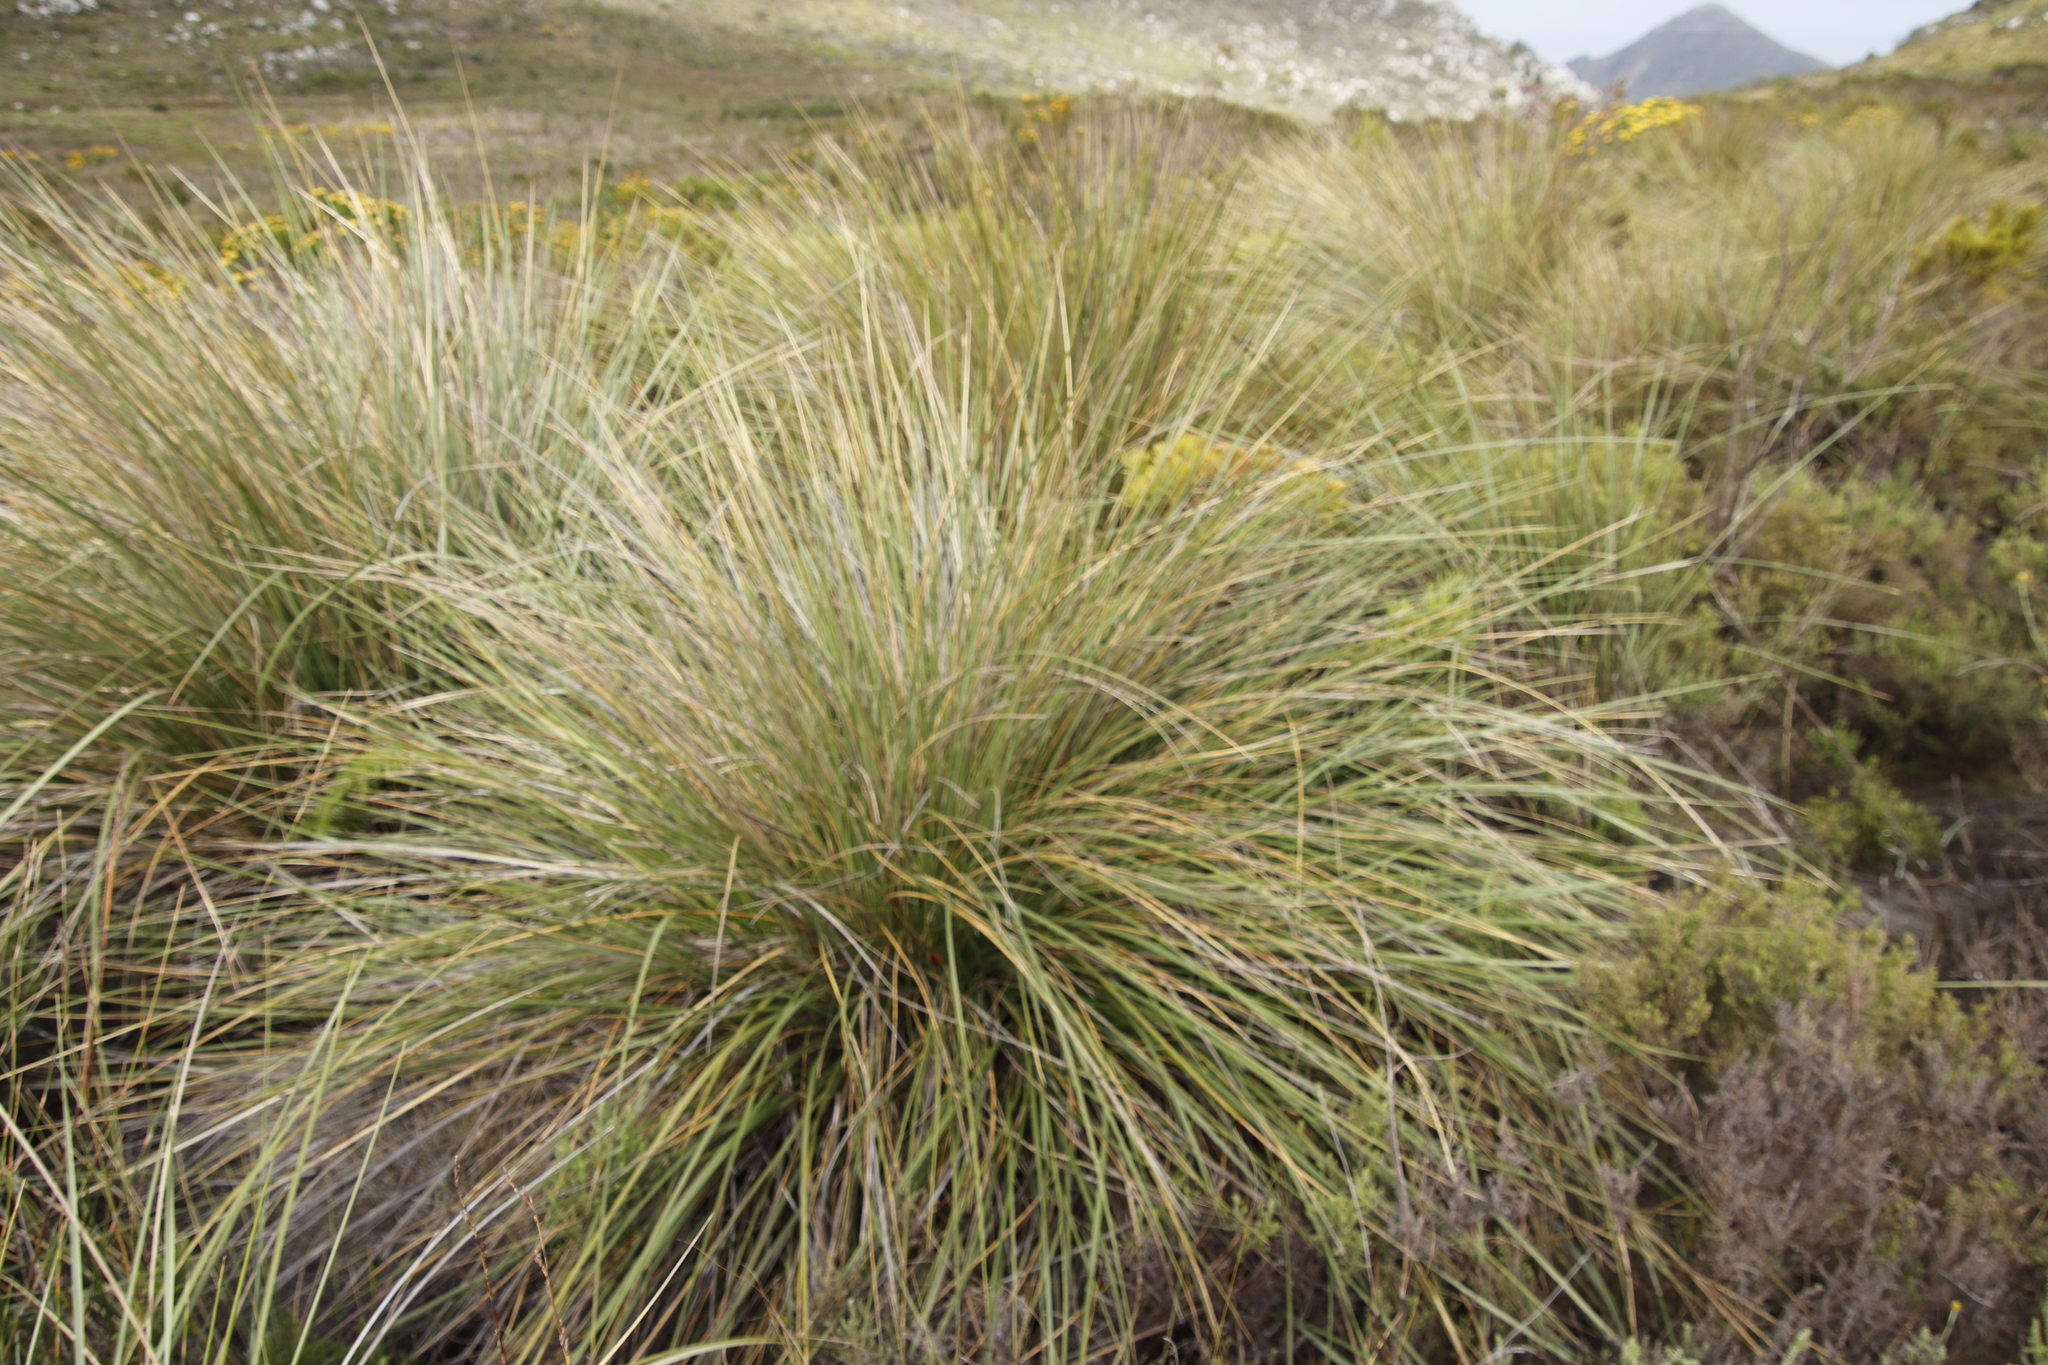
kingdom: Plantae
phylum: Tracheophyta
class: Liliopsida
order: Poales
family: Poaceae
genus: Capeochloa
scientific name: Capeochloa cincta
